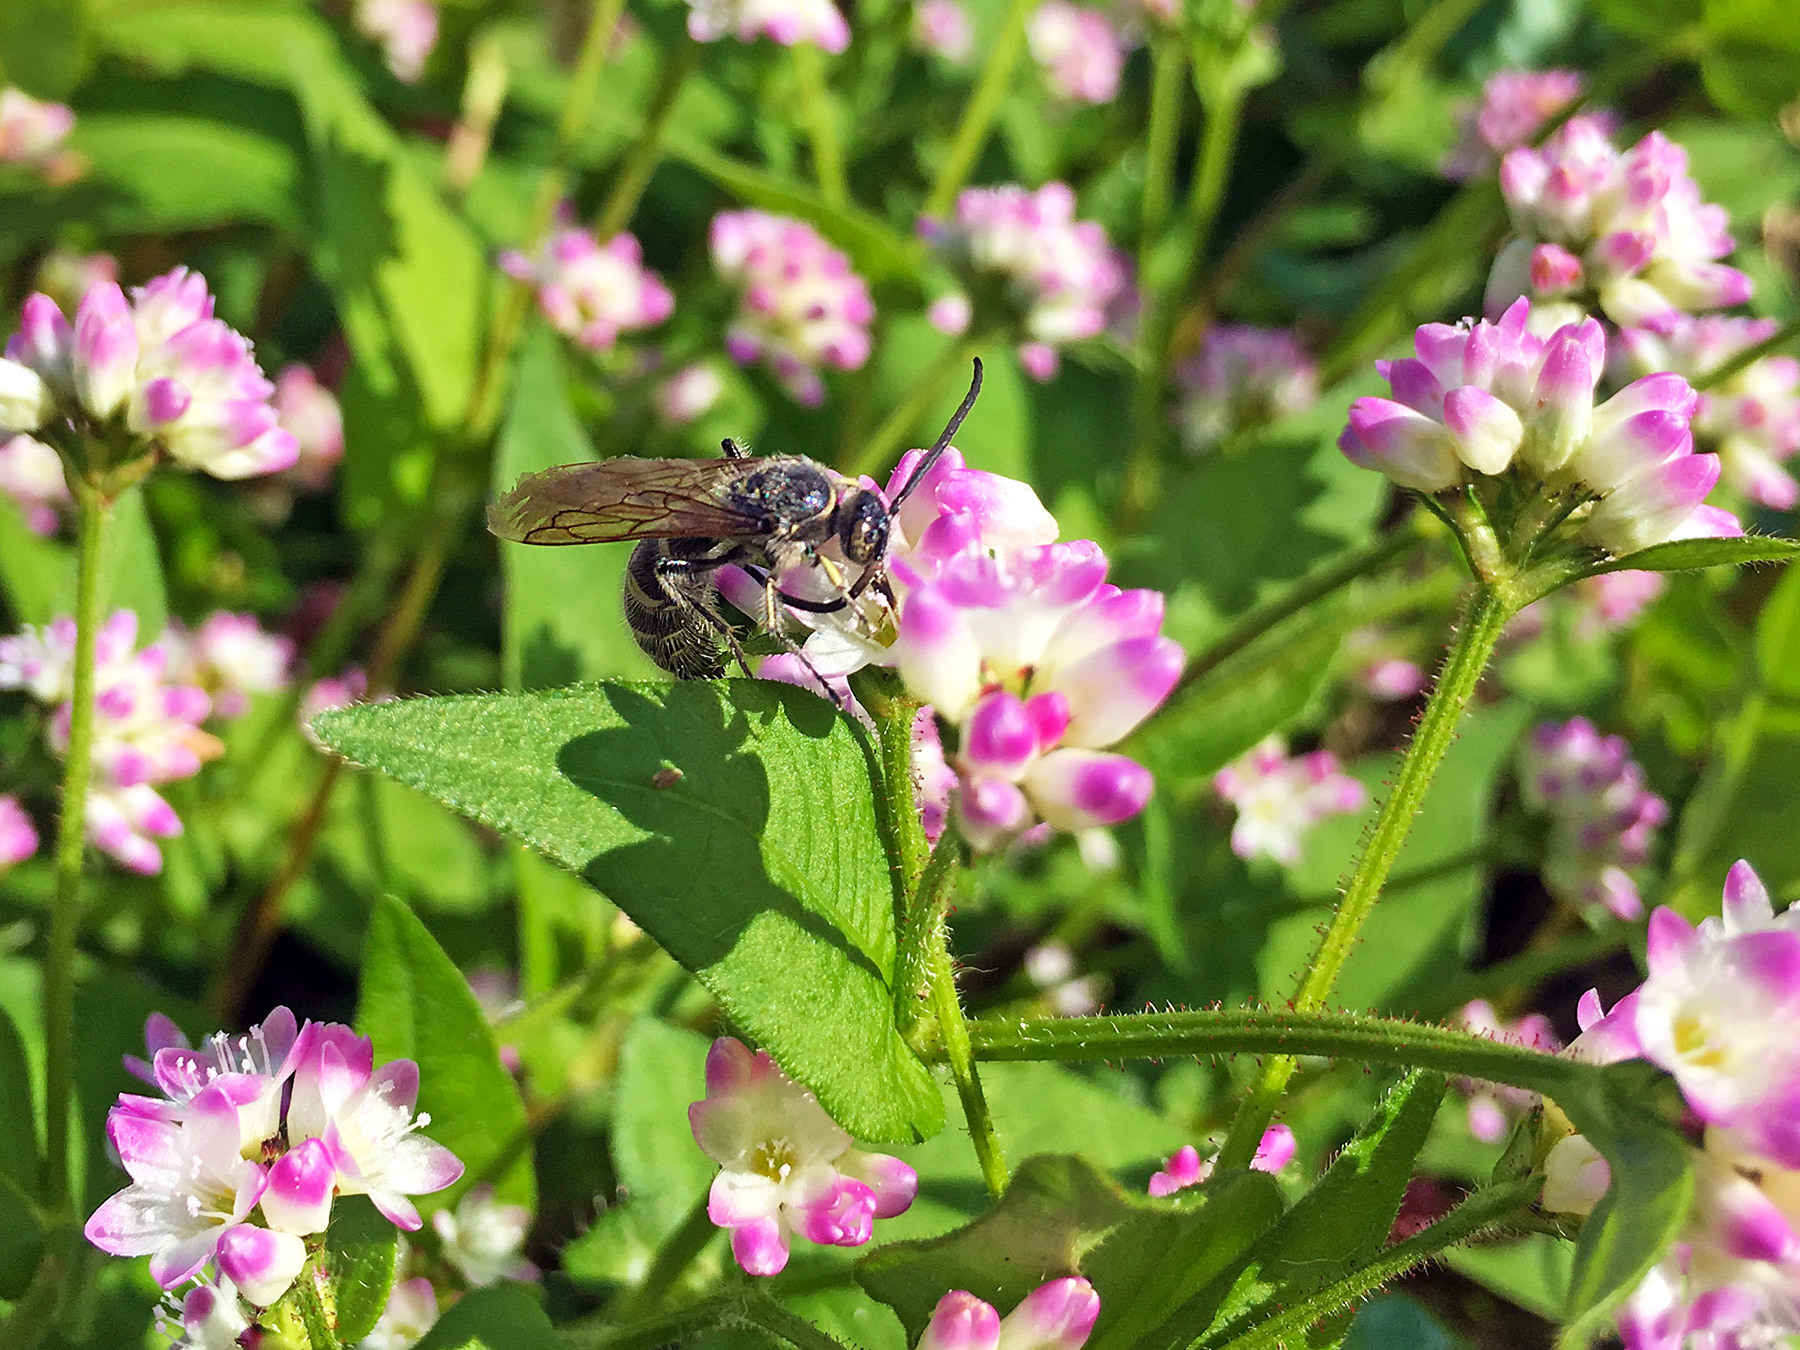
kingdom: Animalia
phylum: Arthropoda
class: Insecta
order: Hymenoptera
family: Scoliidae
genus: Campsomeris
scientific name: Campsomeris annulata
